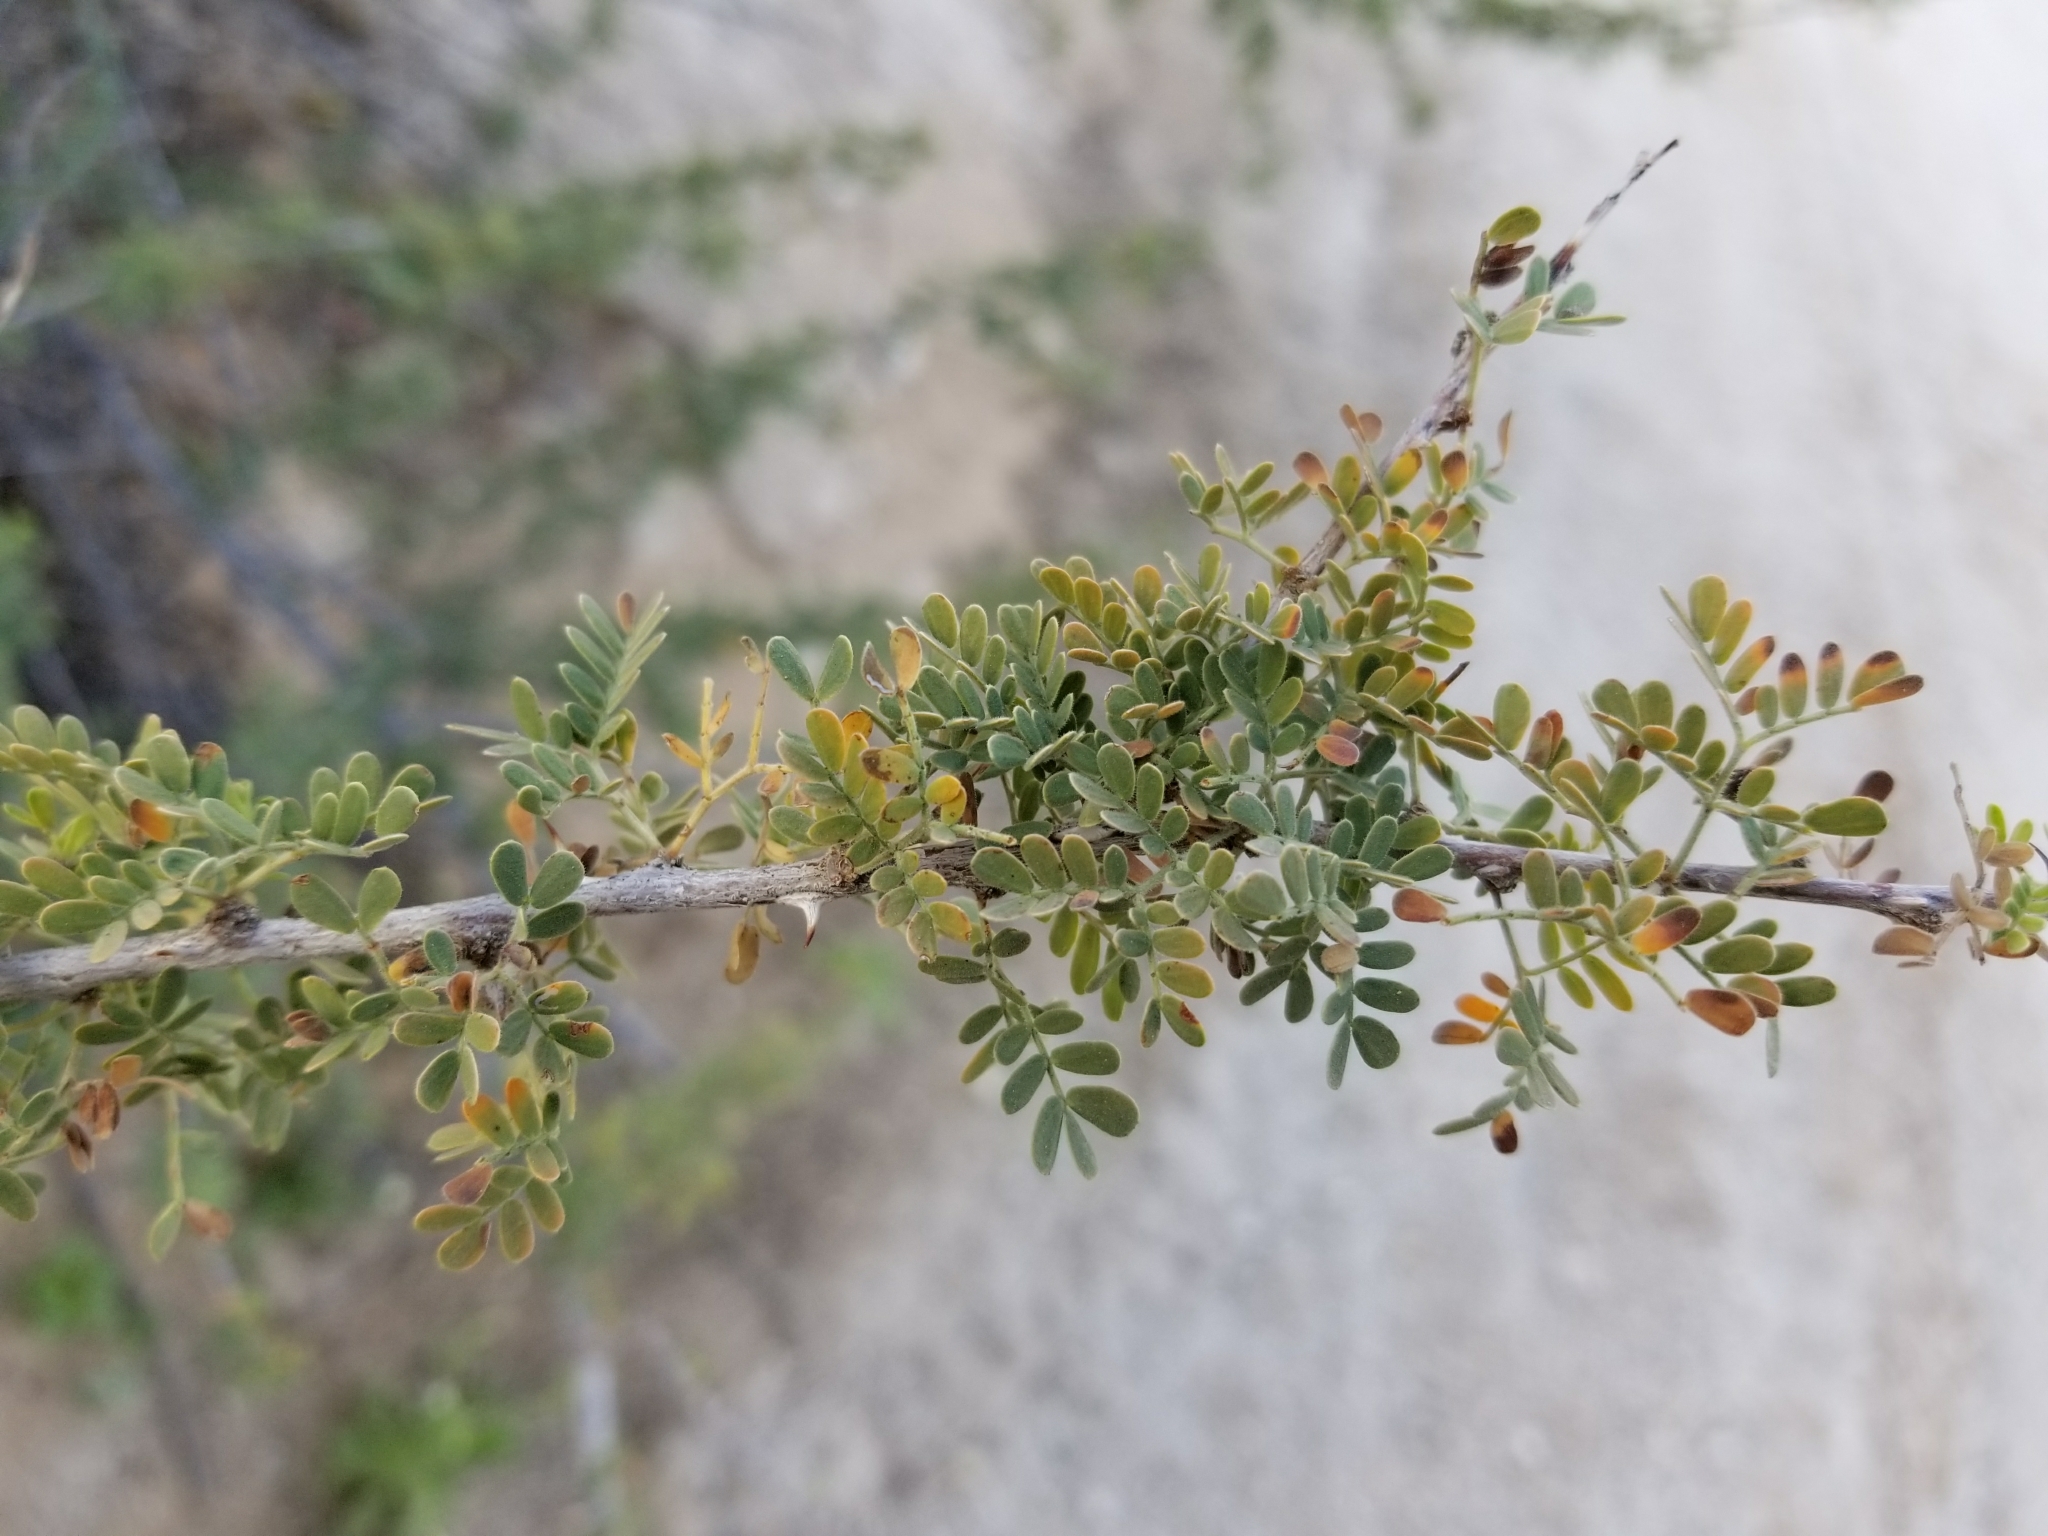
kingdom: Plantae
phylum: Tracheophyta
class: Magnoliopsida
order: Fabales
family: Fabaceae
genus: Senegalia
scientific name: Senegalia greggii
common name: Texas-mimosa
